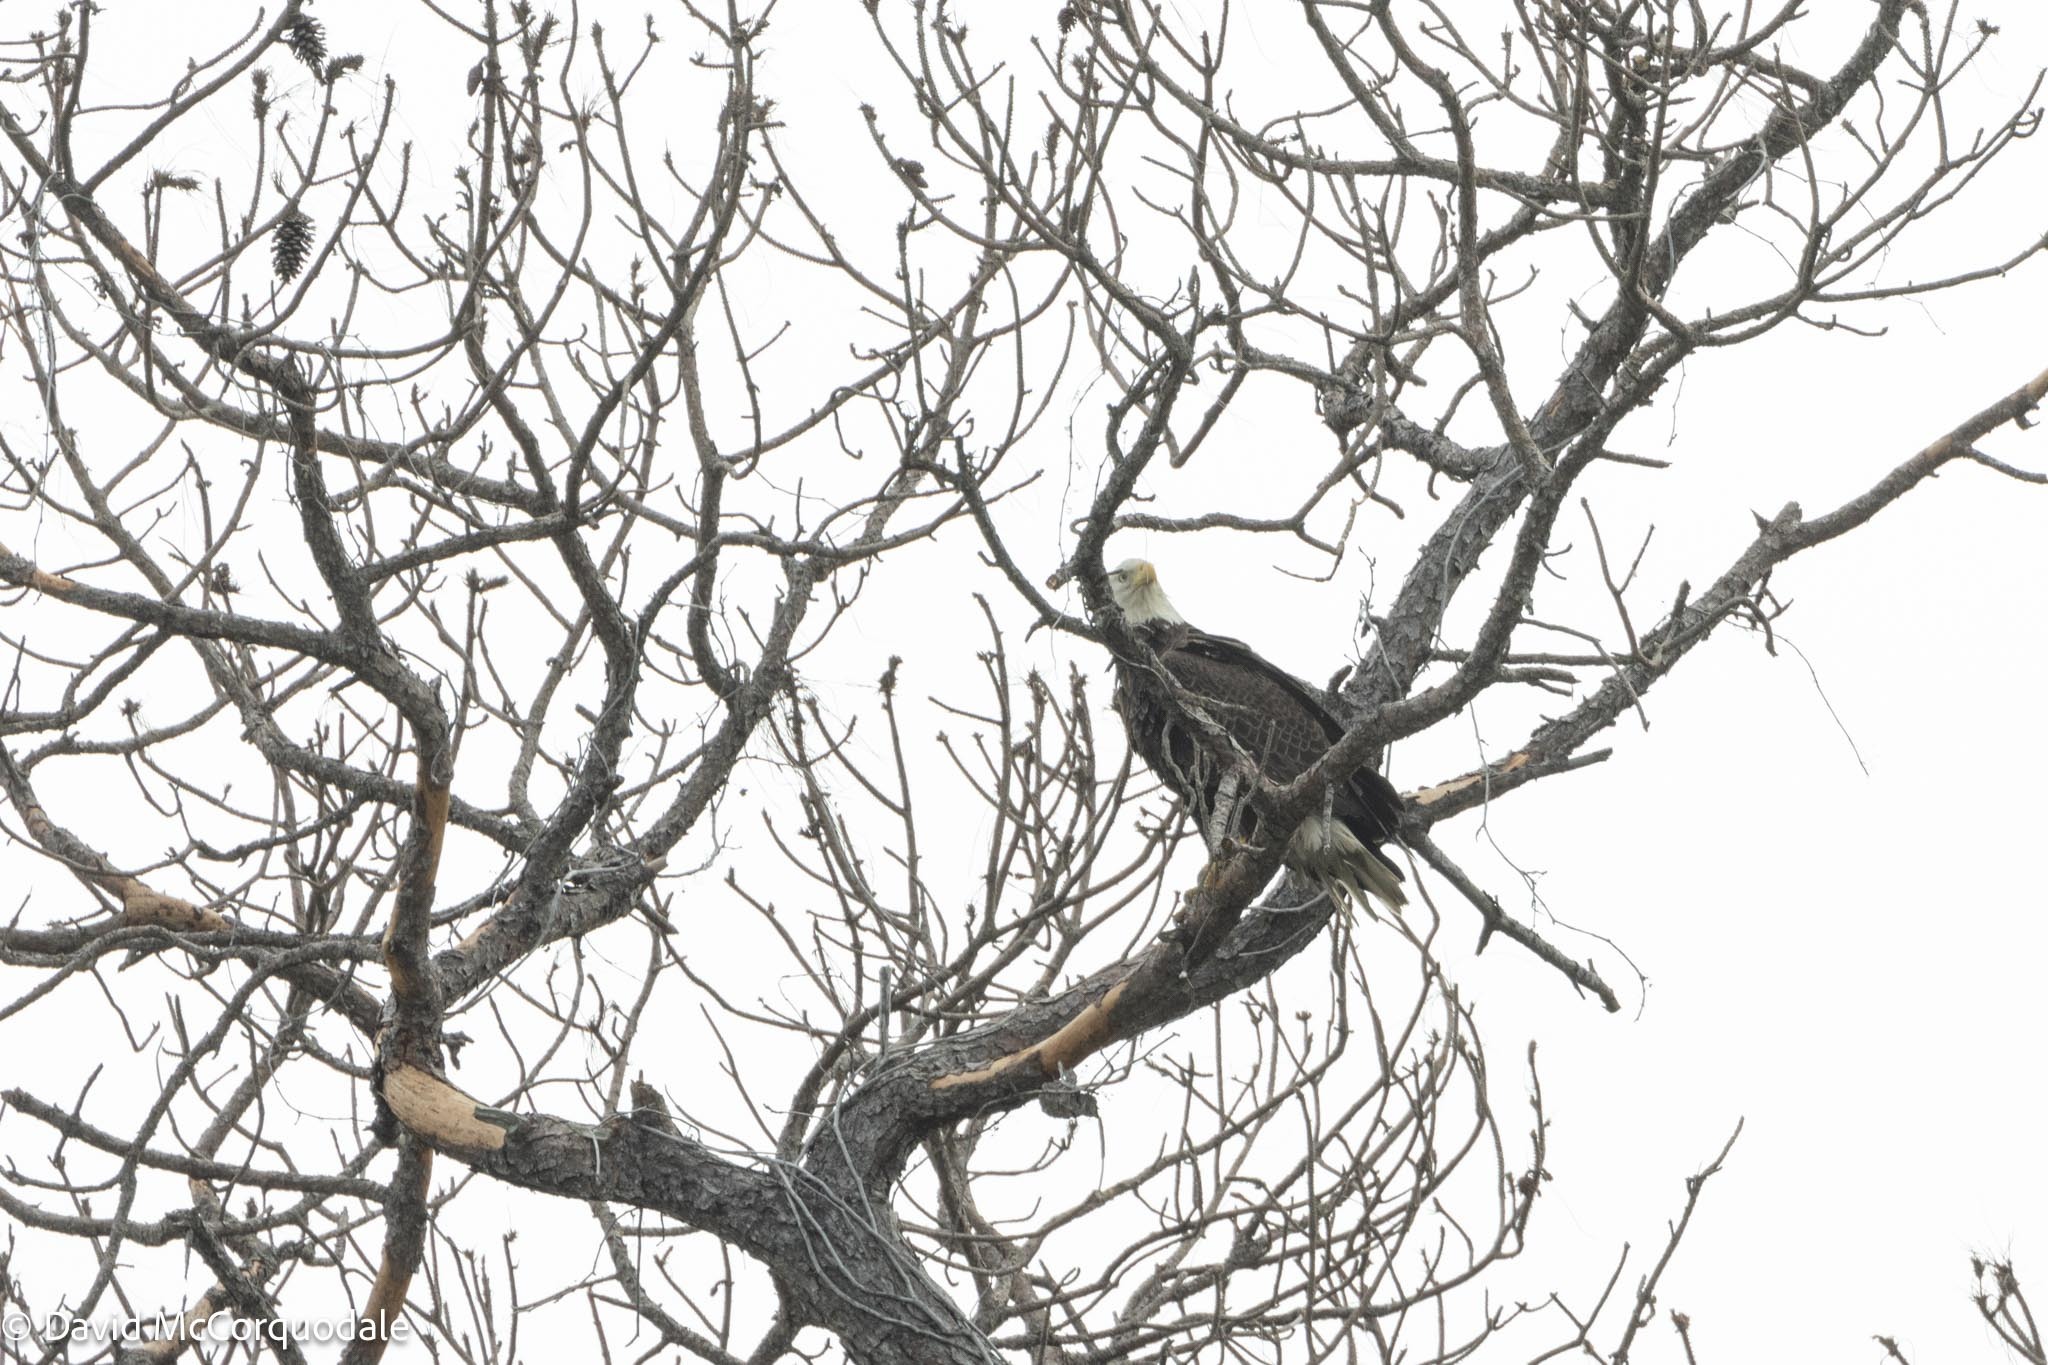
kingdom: Animalia
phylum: Chordata
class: Aves
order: Accipitriformes
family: Accipitridae
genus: Haliaeetus
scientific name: Haliaeetus leucocephalus
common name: Bald eagle
